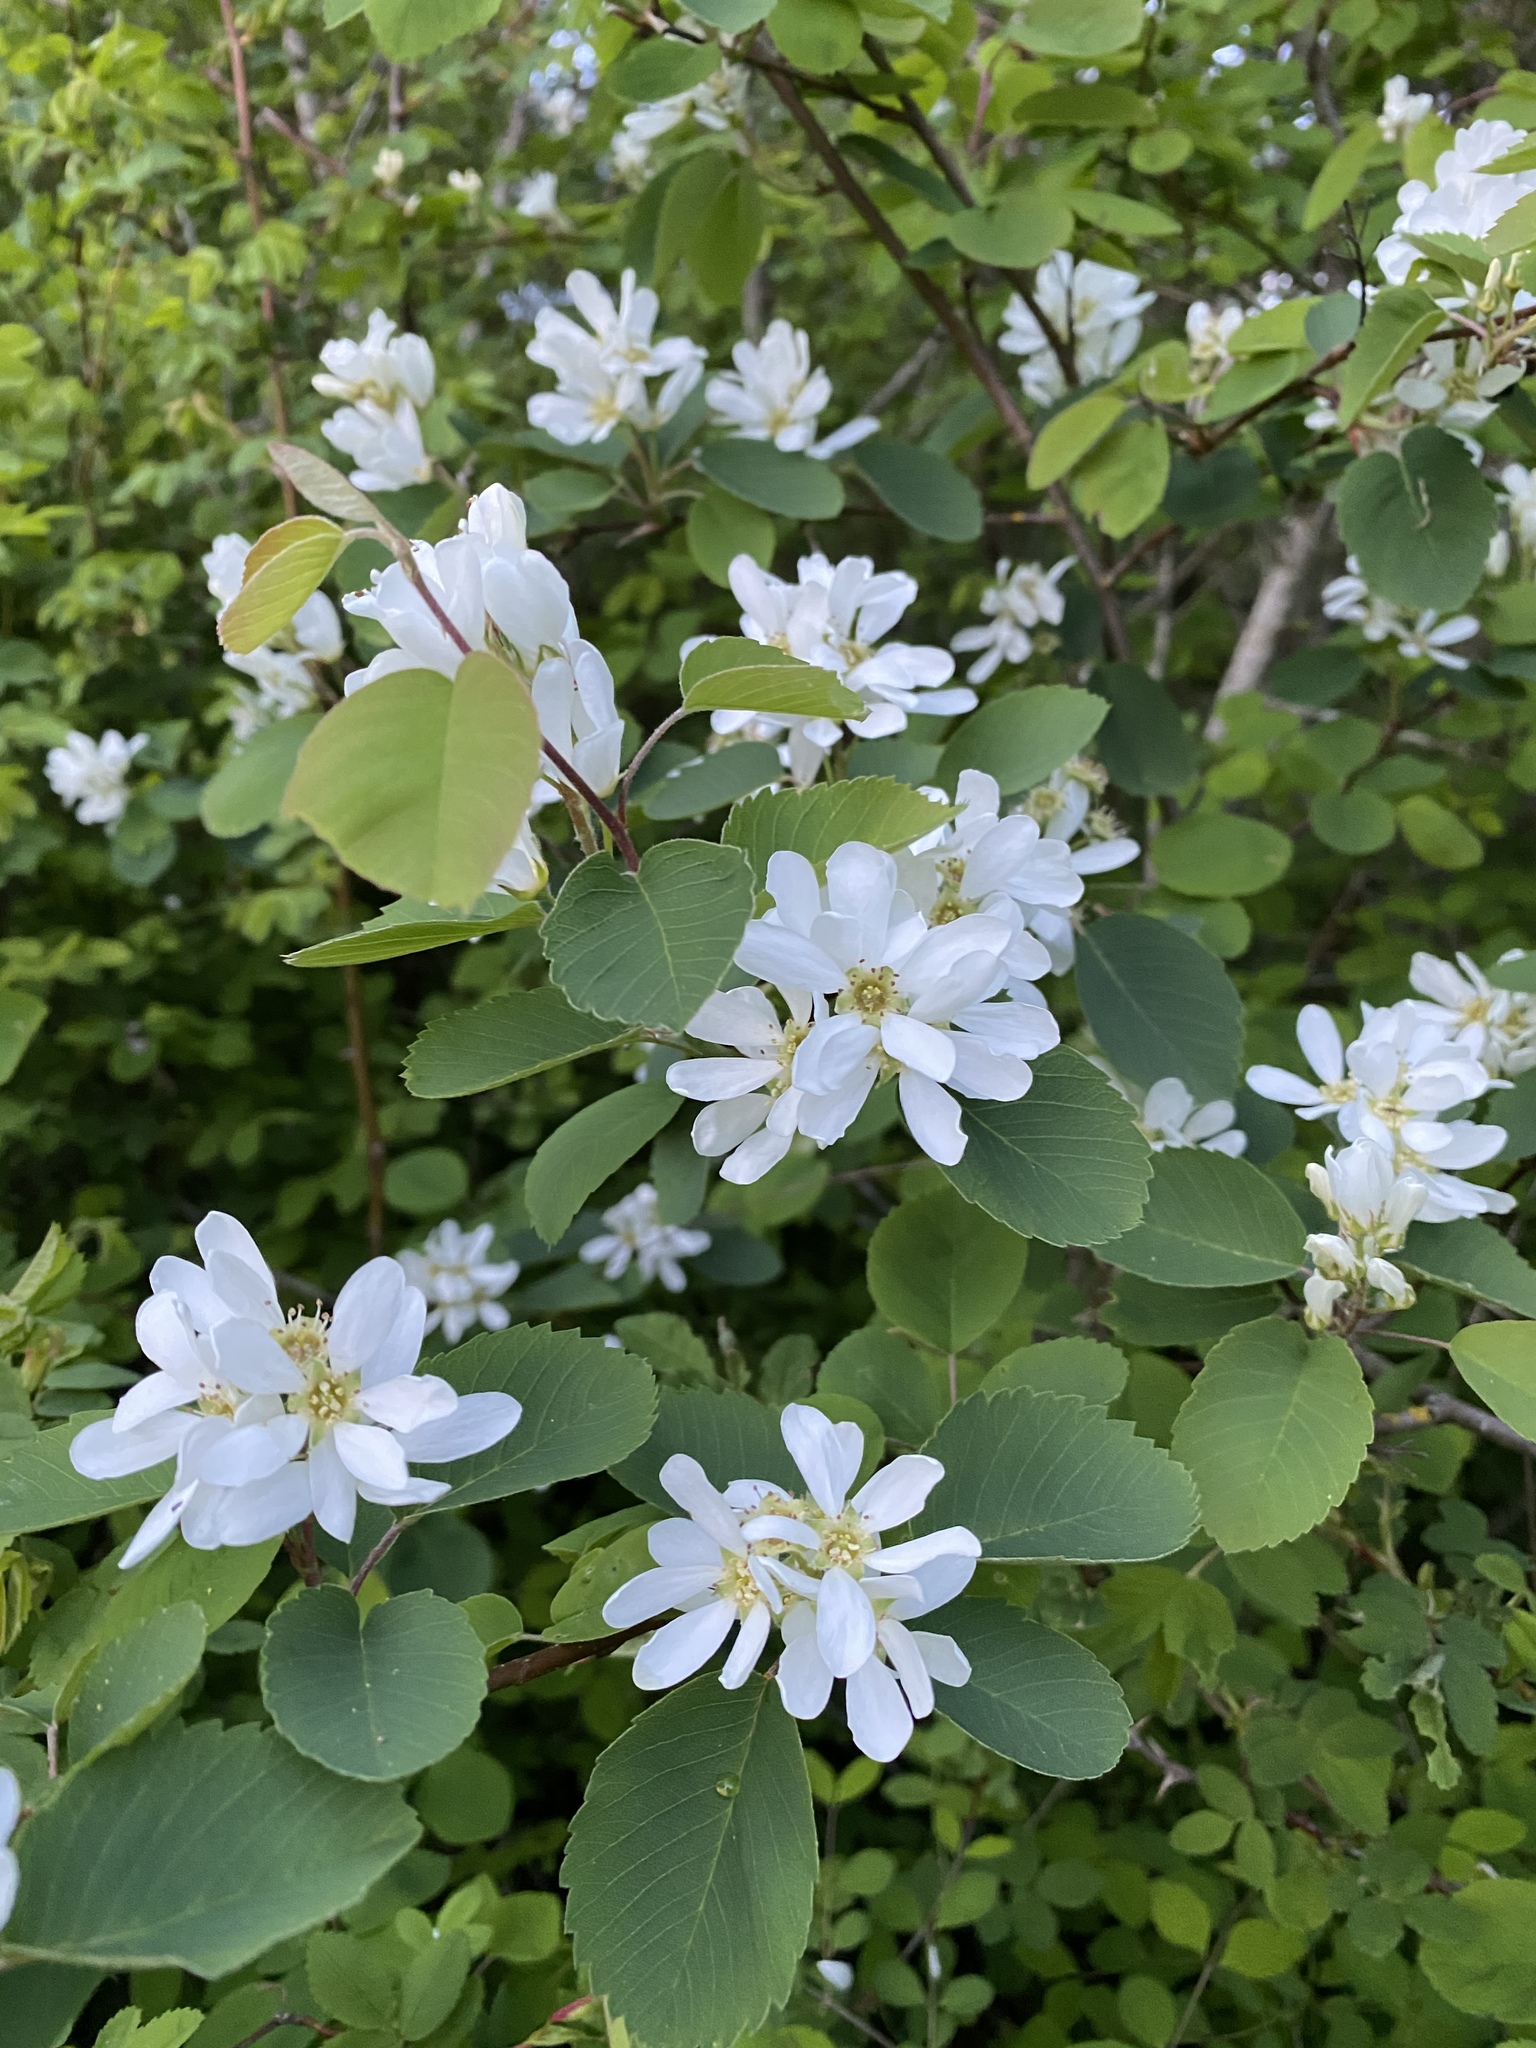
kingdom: Plantae
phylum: Tracheophyta
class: Magnoliopsida
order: Rosales
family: Rosaceae
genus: Amelanchier
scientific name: Amelanchier alnifolia
